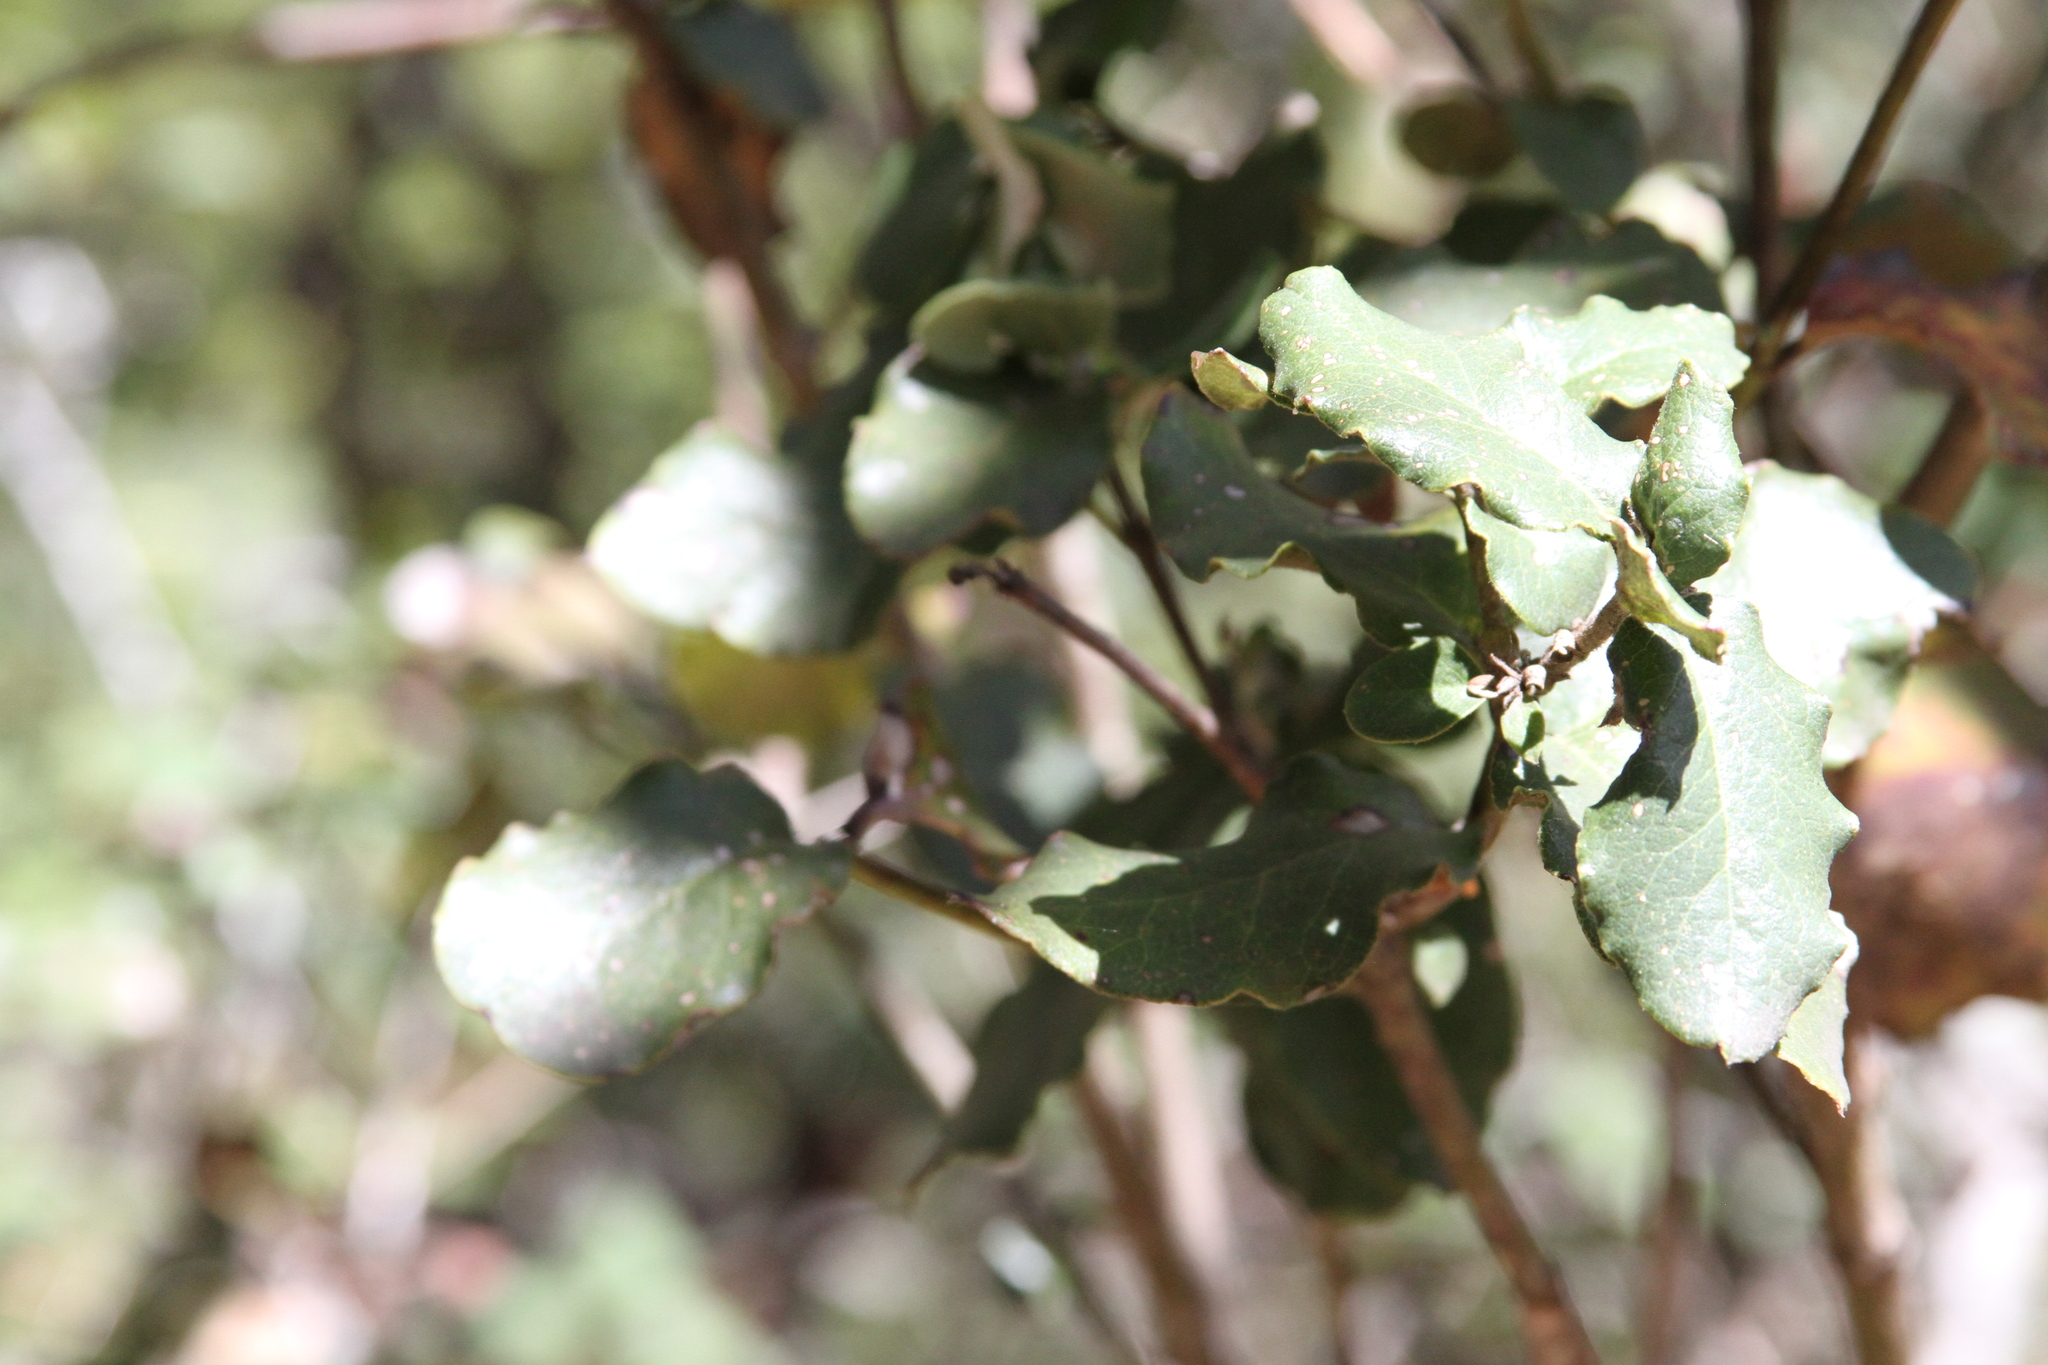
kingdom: Plantae
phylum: Tracheophyta
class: Magnoliopsida
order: Garryales
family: Garryaceae
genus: Garrya
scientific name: Garrya elliptica
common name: Silk-tassel
